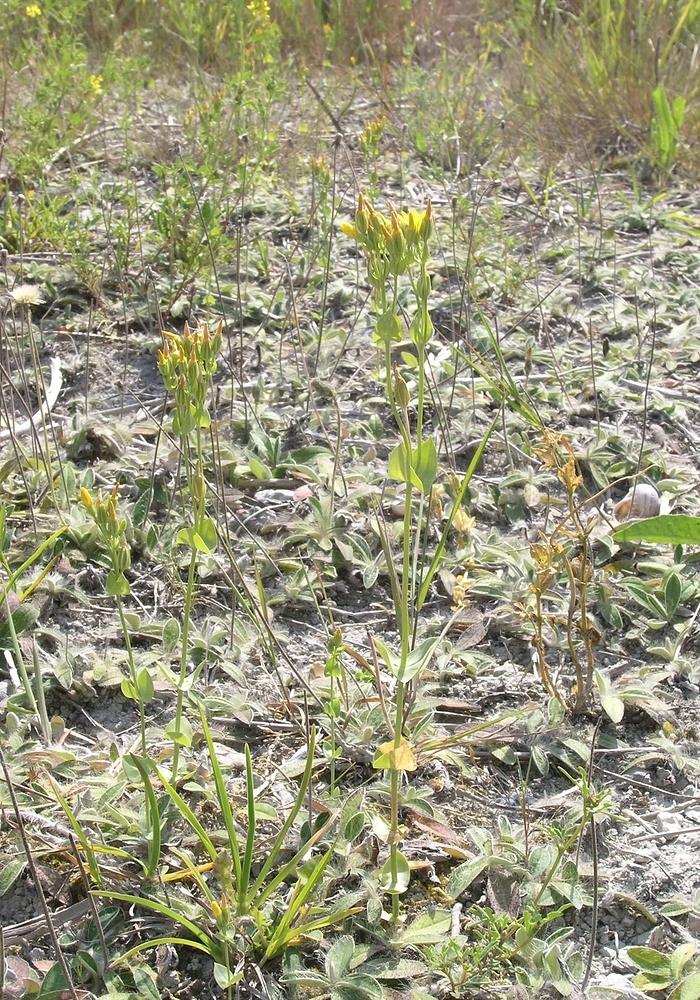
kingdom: Plantae
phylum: Tracheophyta
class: Magnoliopsida
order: Gentianales
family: Gentianaceae
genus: Blackstonia
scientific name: Blackstonia perfoliata
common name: Yellow-wort
